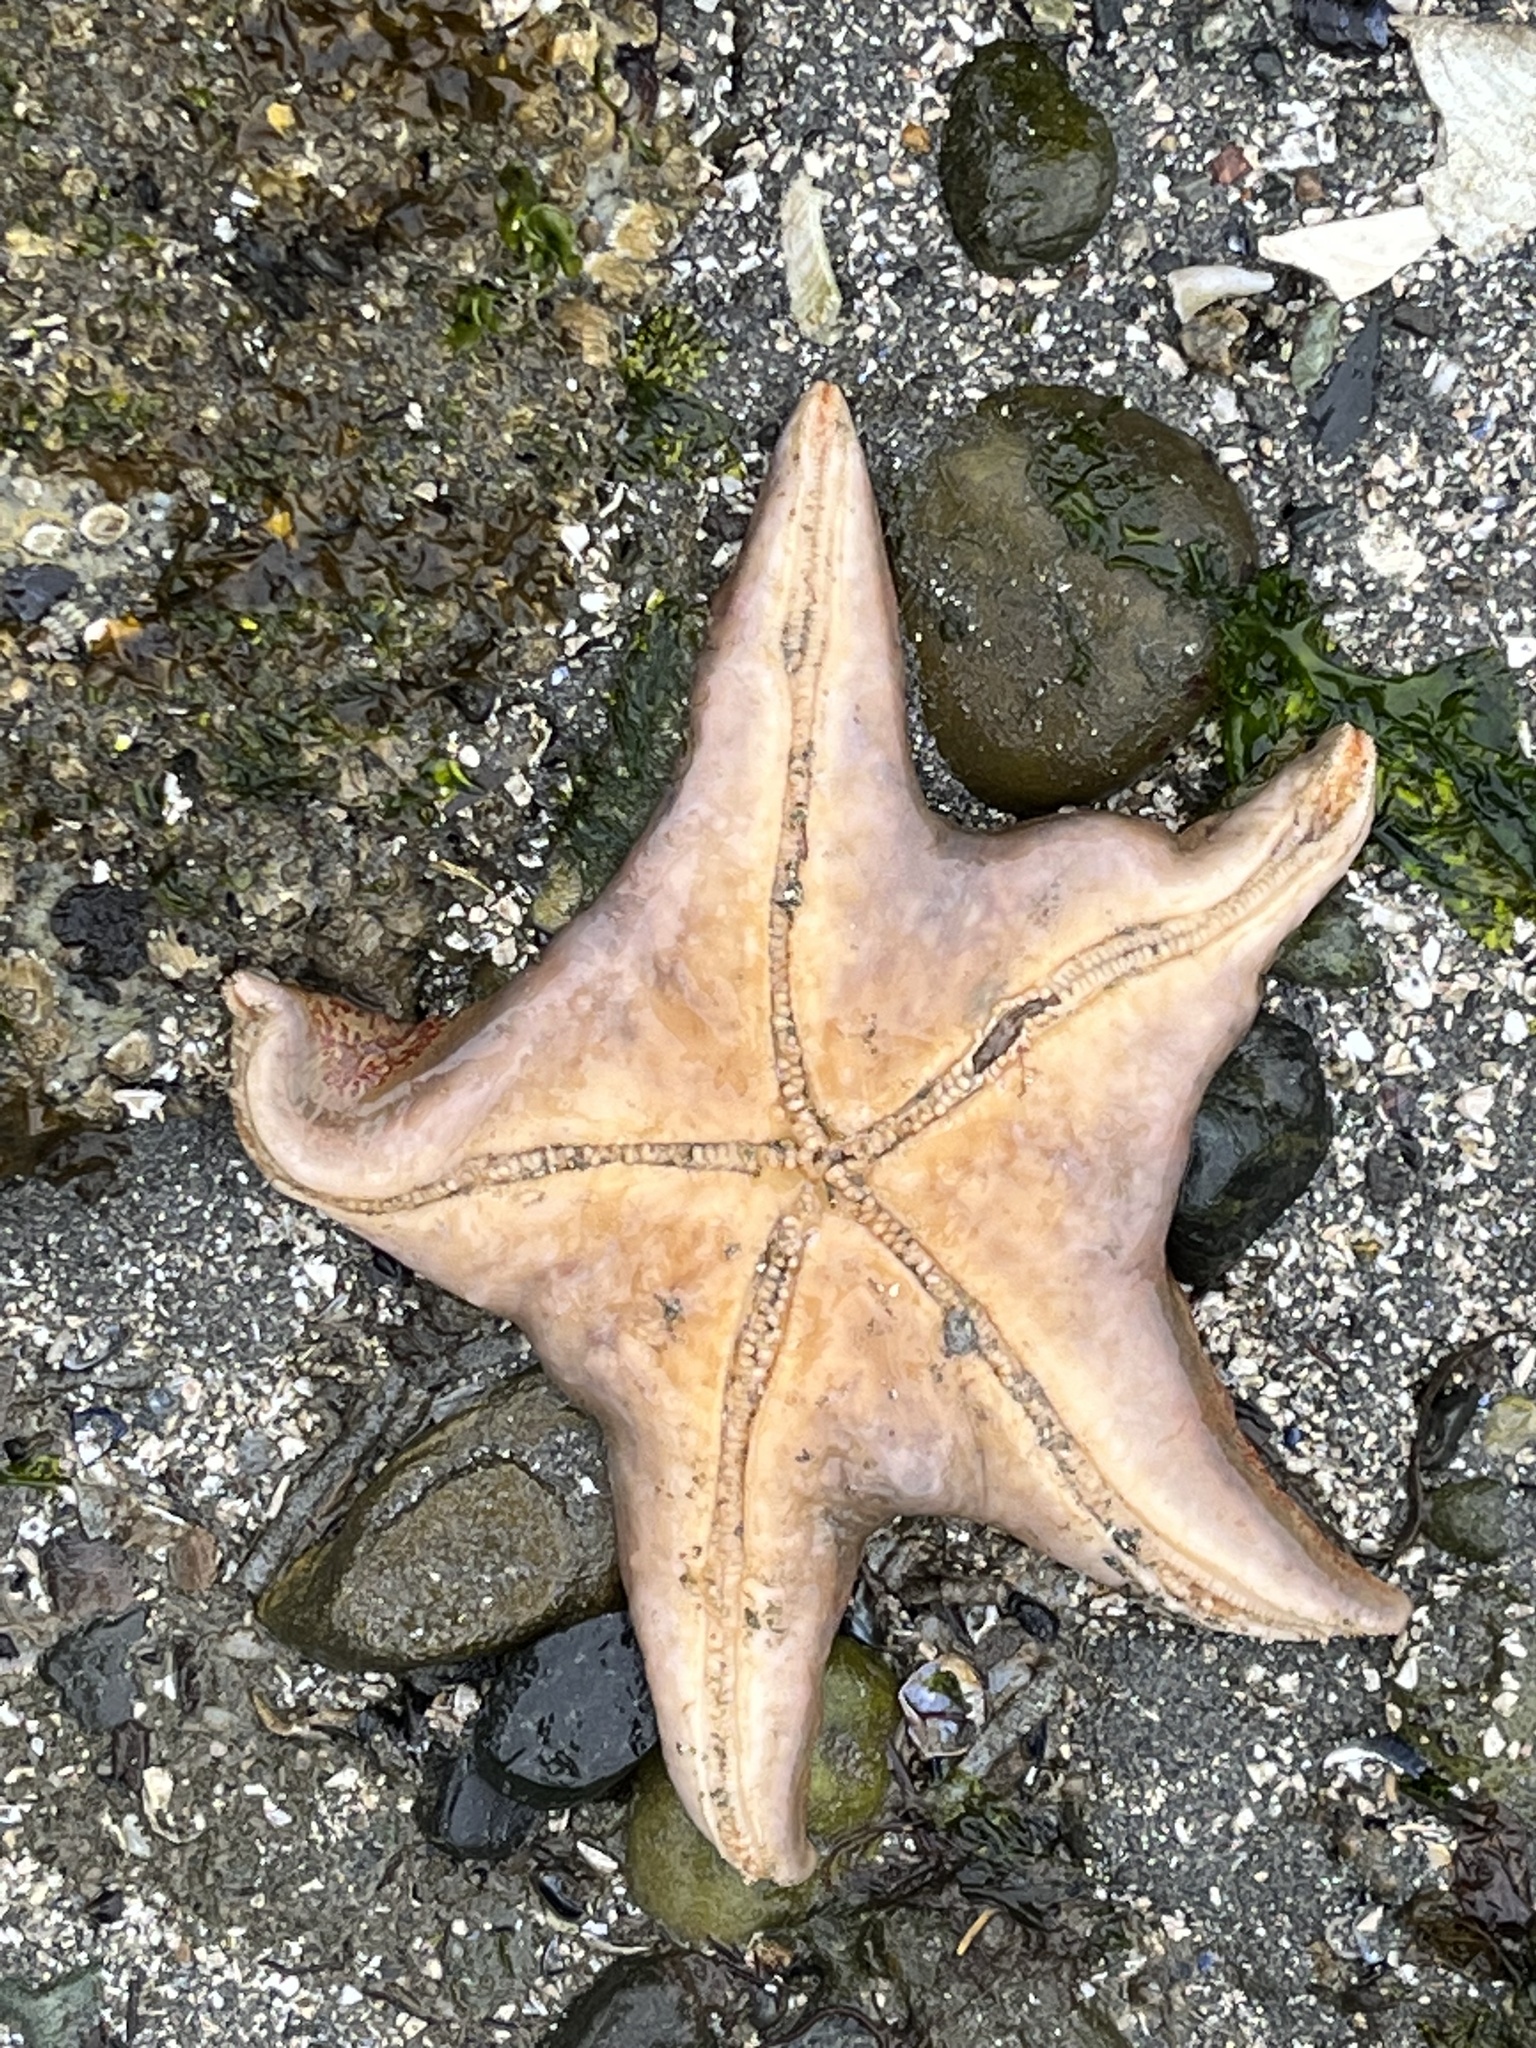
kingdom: Animalia
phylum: Echinodermata
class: Asteroidea
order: Valvatida
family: Asteropseidae
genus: Dermasterias
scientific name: Dermasterias imbricata
